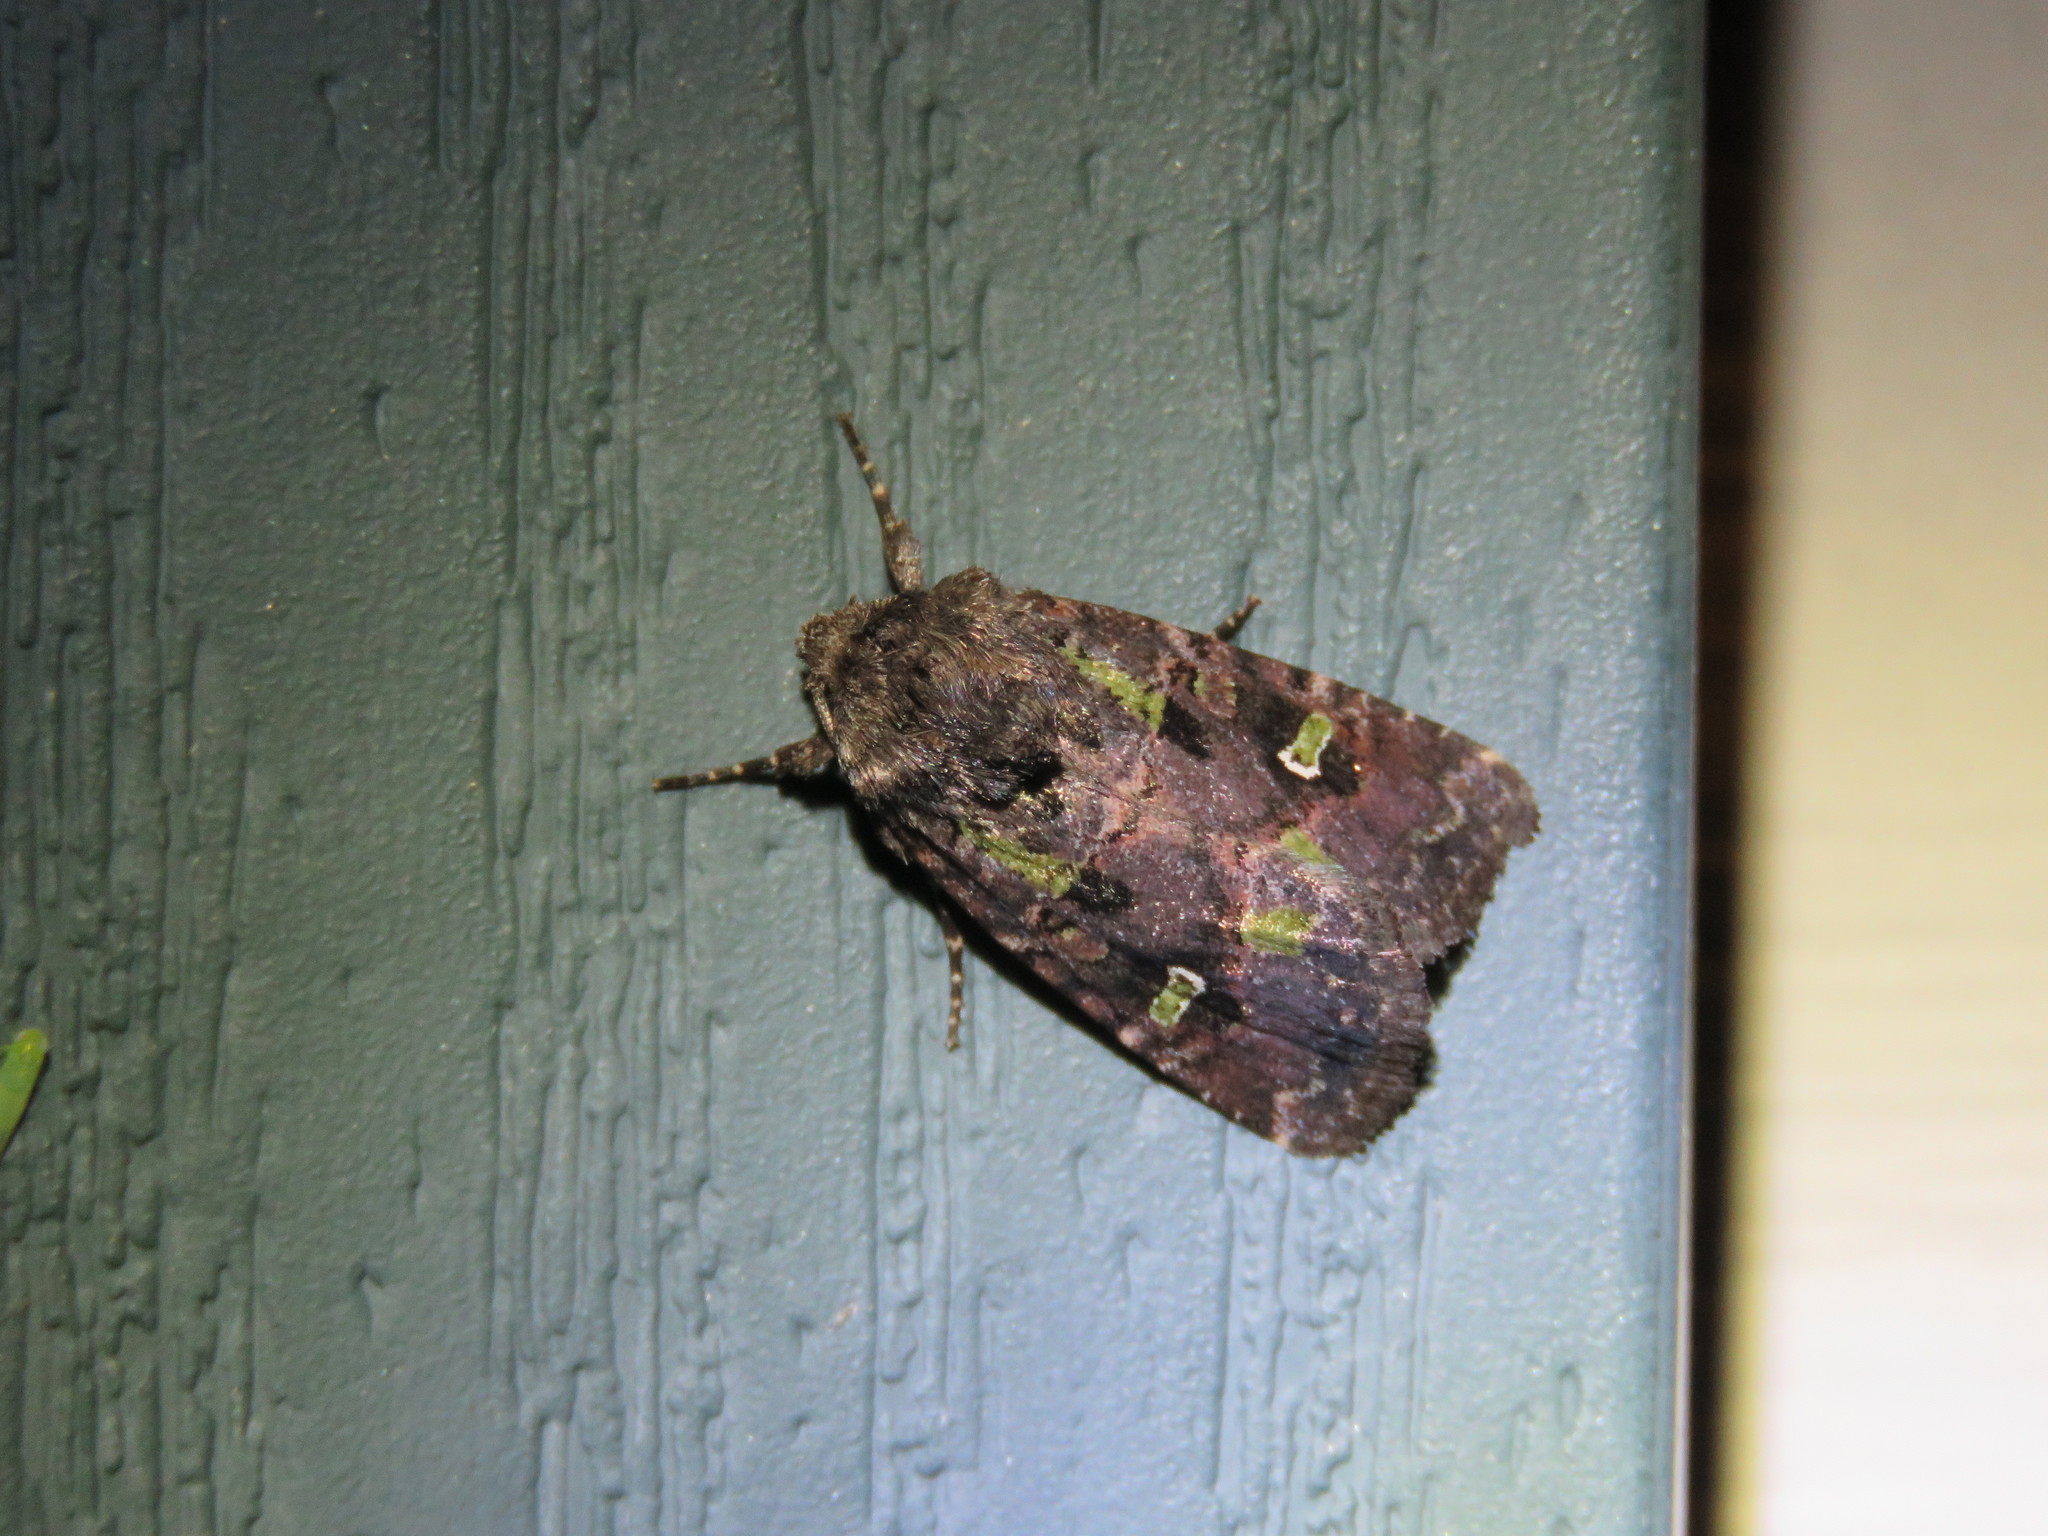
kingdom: Animalia
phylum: Arthropoda
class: Insecta
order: Lepidoptera
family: Noctuidae
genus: Lacinipolia
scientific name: Lacinipolia renigera
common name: Kidney-spotted minor
